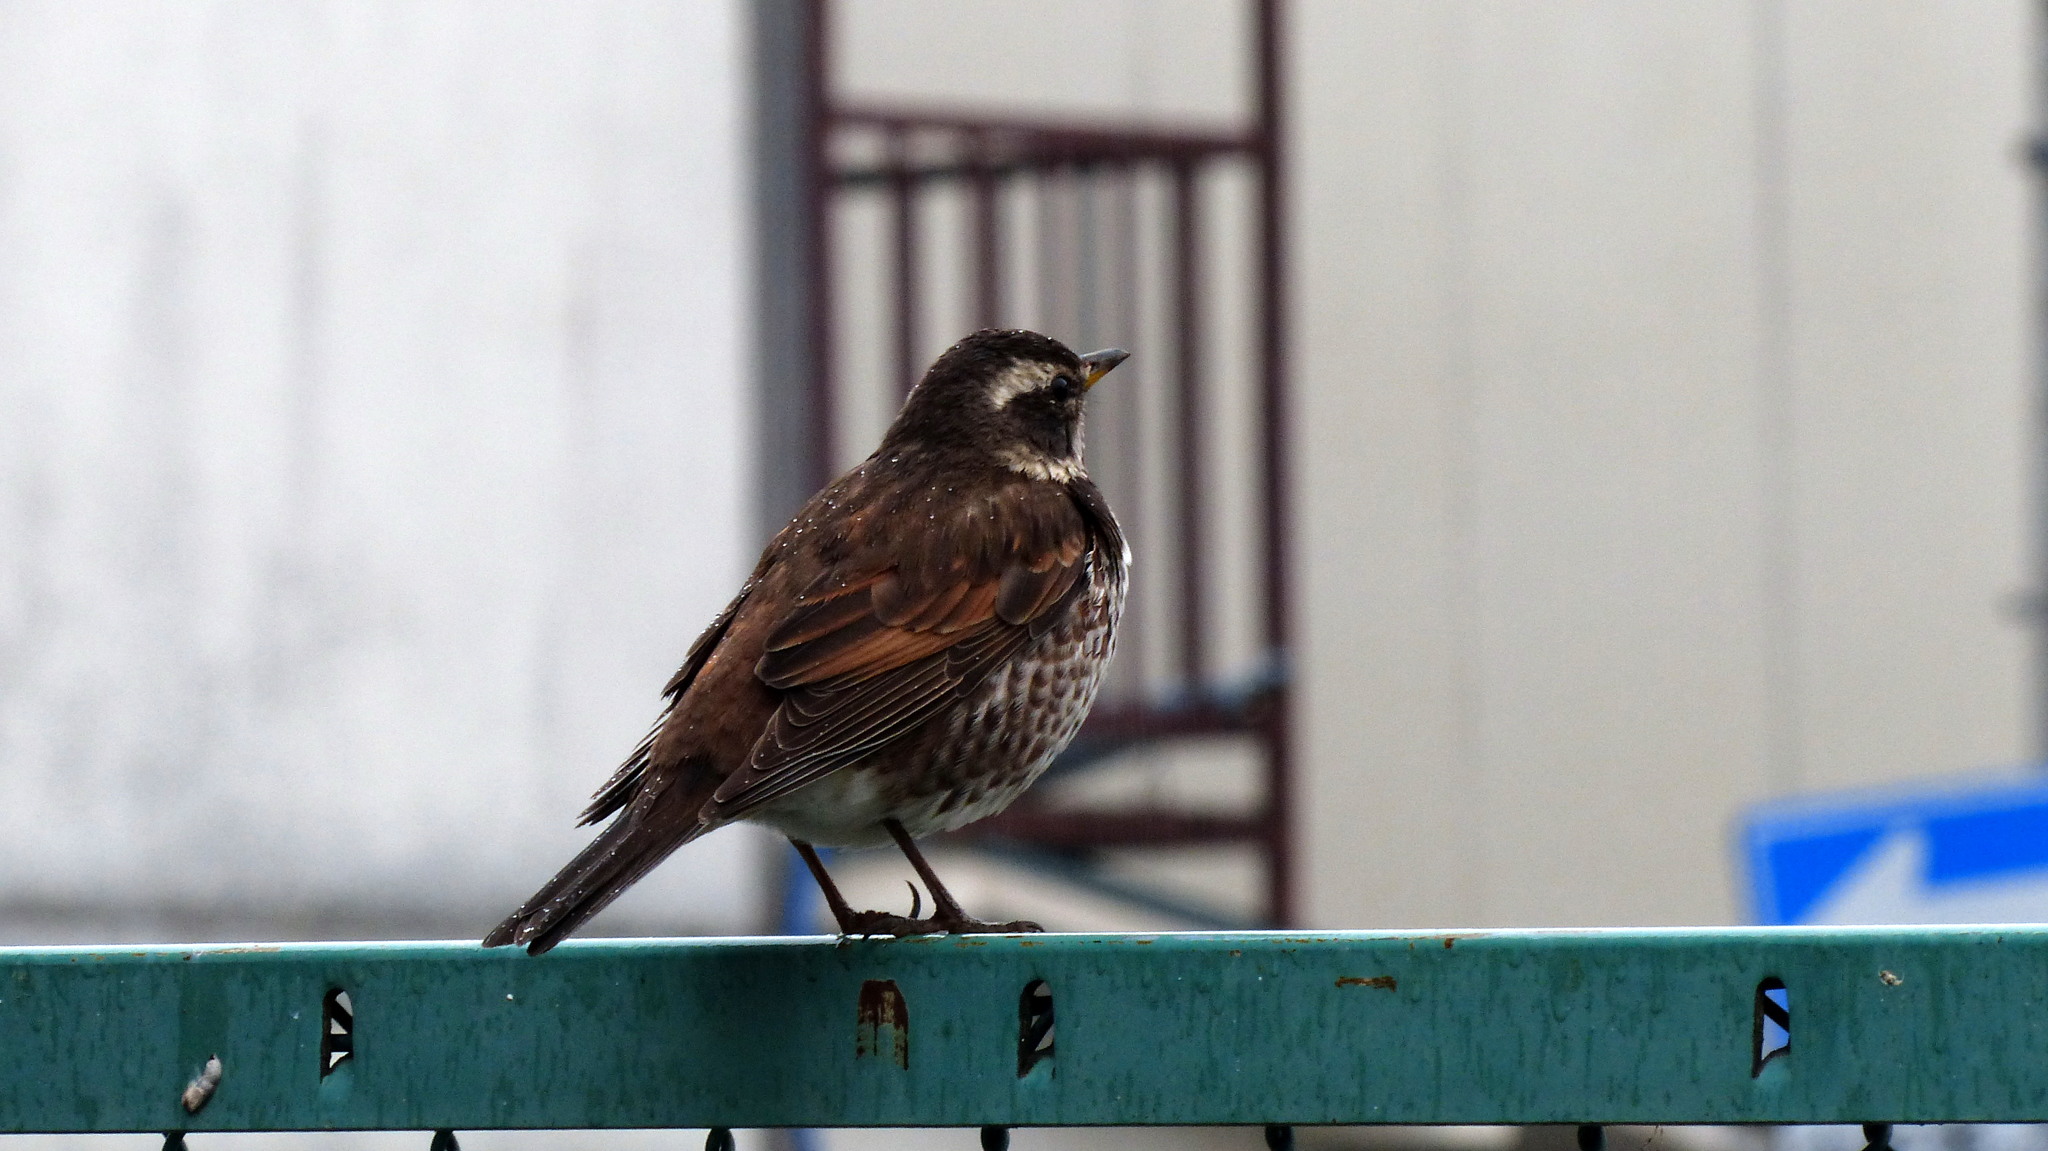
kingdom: Animalia
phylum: Chordata
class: Aves
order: Passeriformes
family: Turdidae
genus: Turdus
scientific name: Turdus eunomus
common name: Dusky thrush
